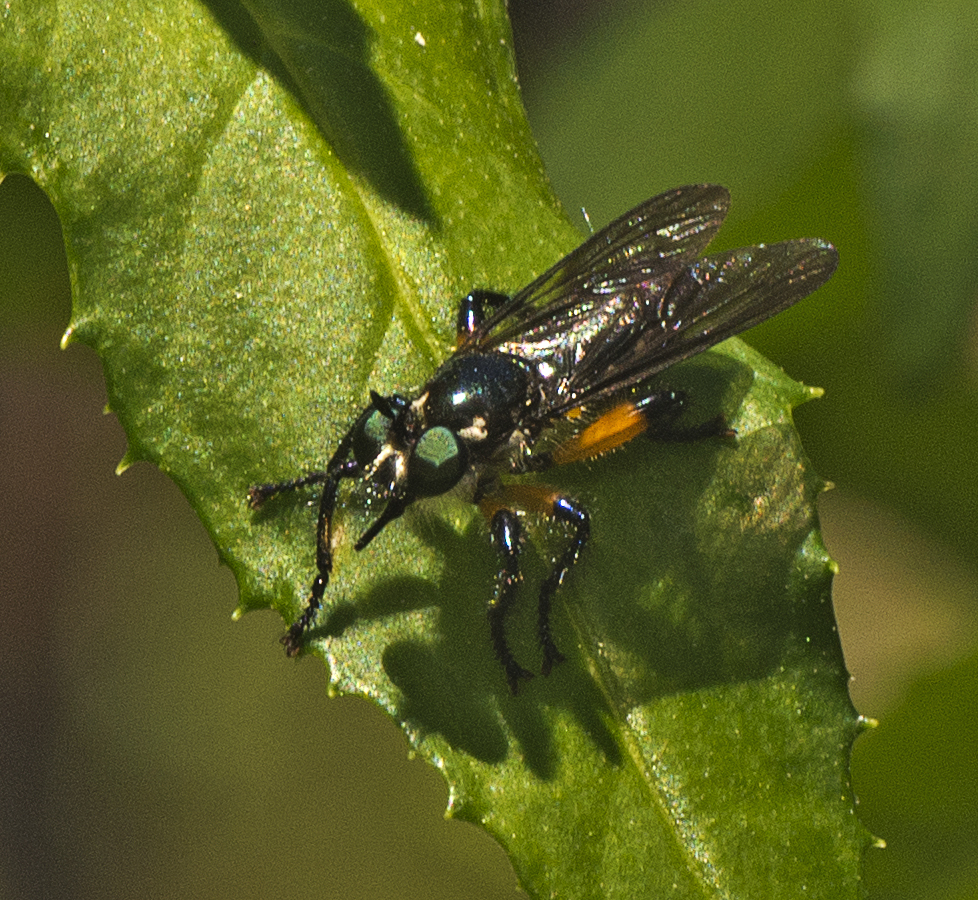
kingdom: Animalia
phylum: Arthropoda
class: Insecta
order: Diptera
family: Asilidae
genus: Laphria
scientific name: Laphria rufifemorata
